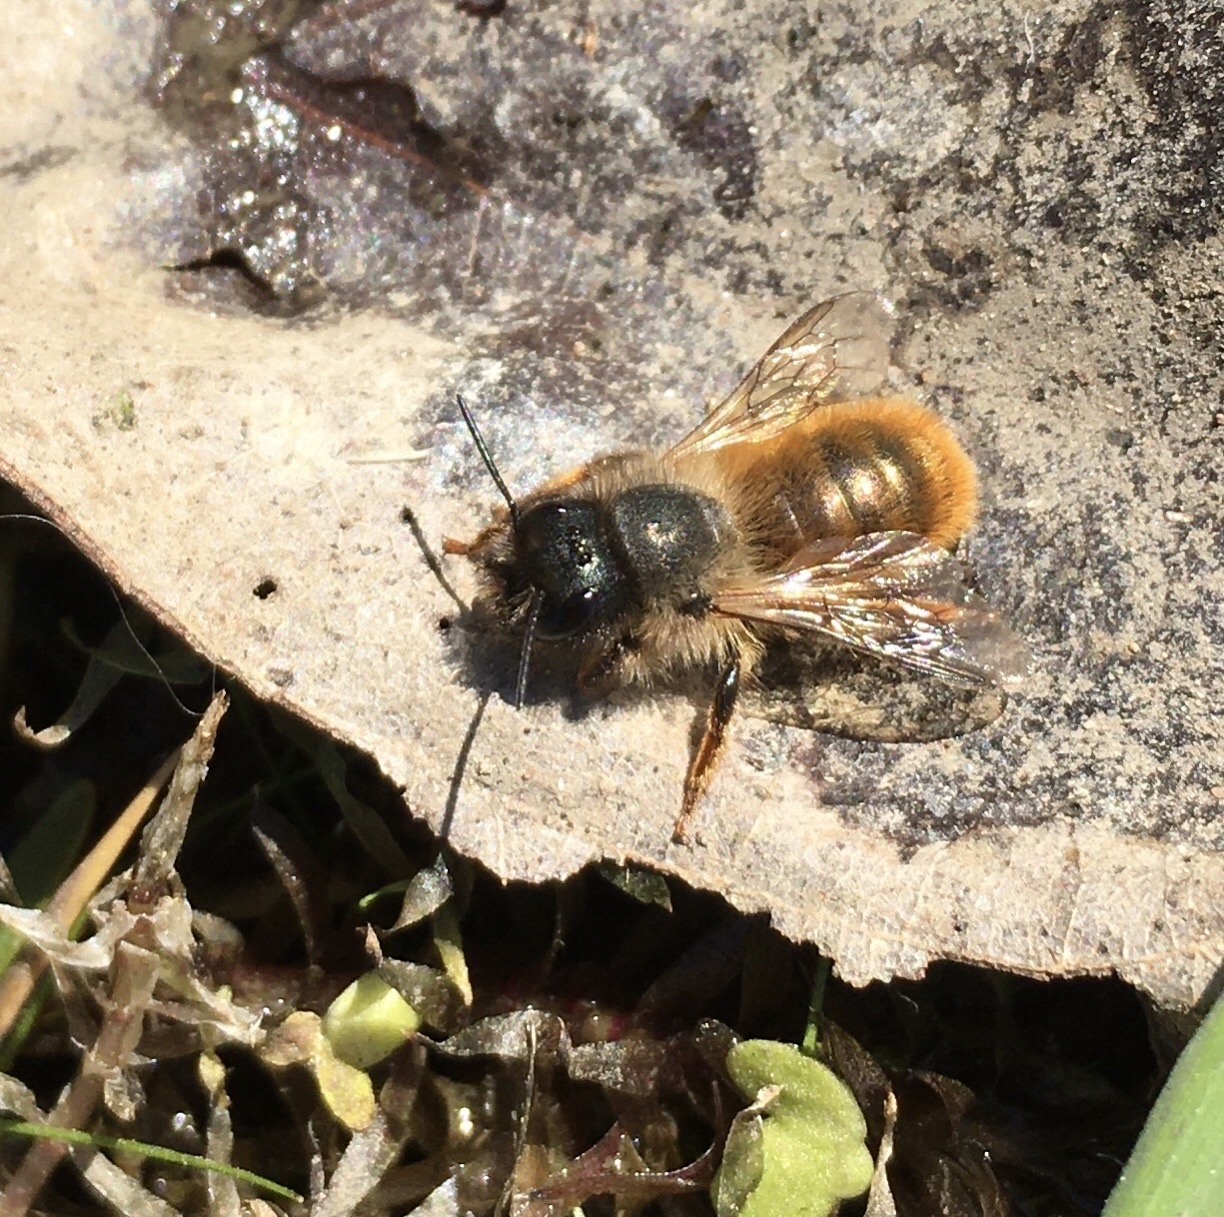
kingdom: Animalia
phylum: Arthropoda
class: Insecta
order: Hymenoptera
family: Megachilidae
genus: Osmia
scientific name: Osmia bicornis
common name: Red mason bee
